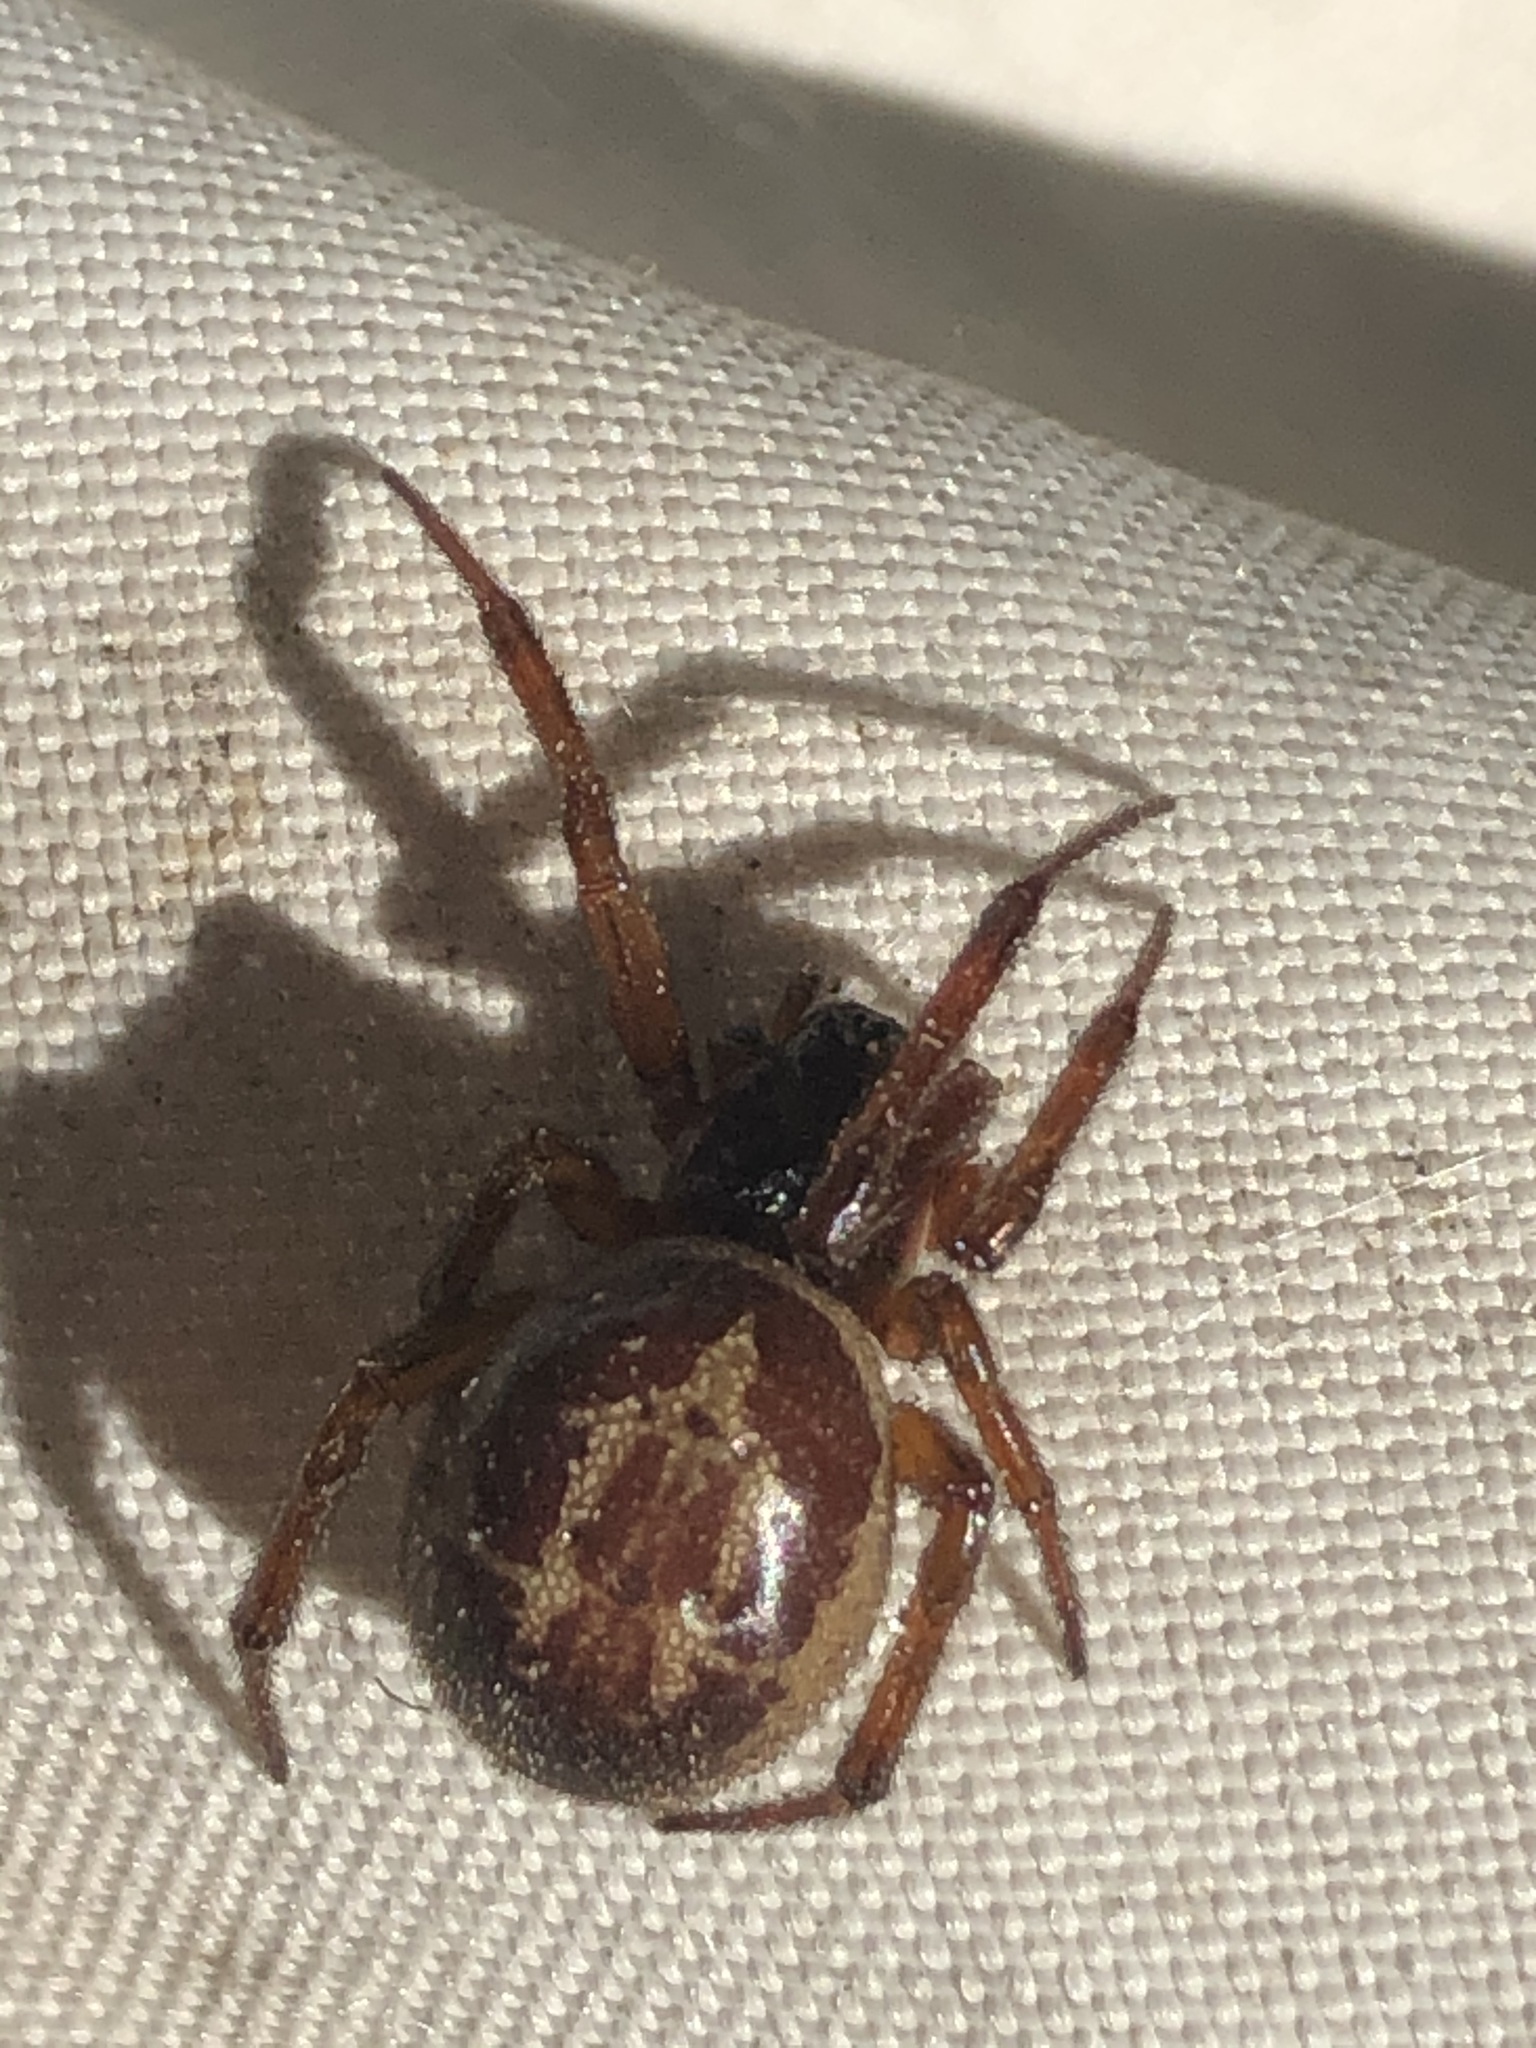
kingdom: Animalia
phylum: Arthropoda
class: Arachnida
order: Araneae
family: Theridiidae
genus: Steatoda
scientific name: Steatoda nobilis
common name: Cobweb weaver
